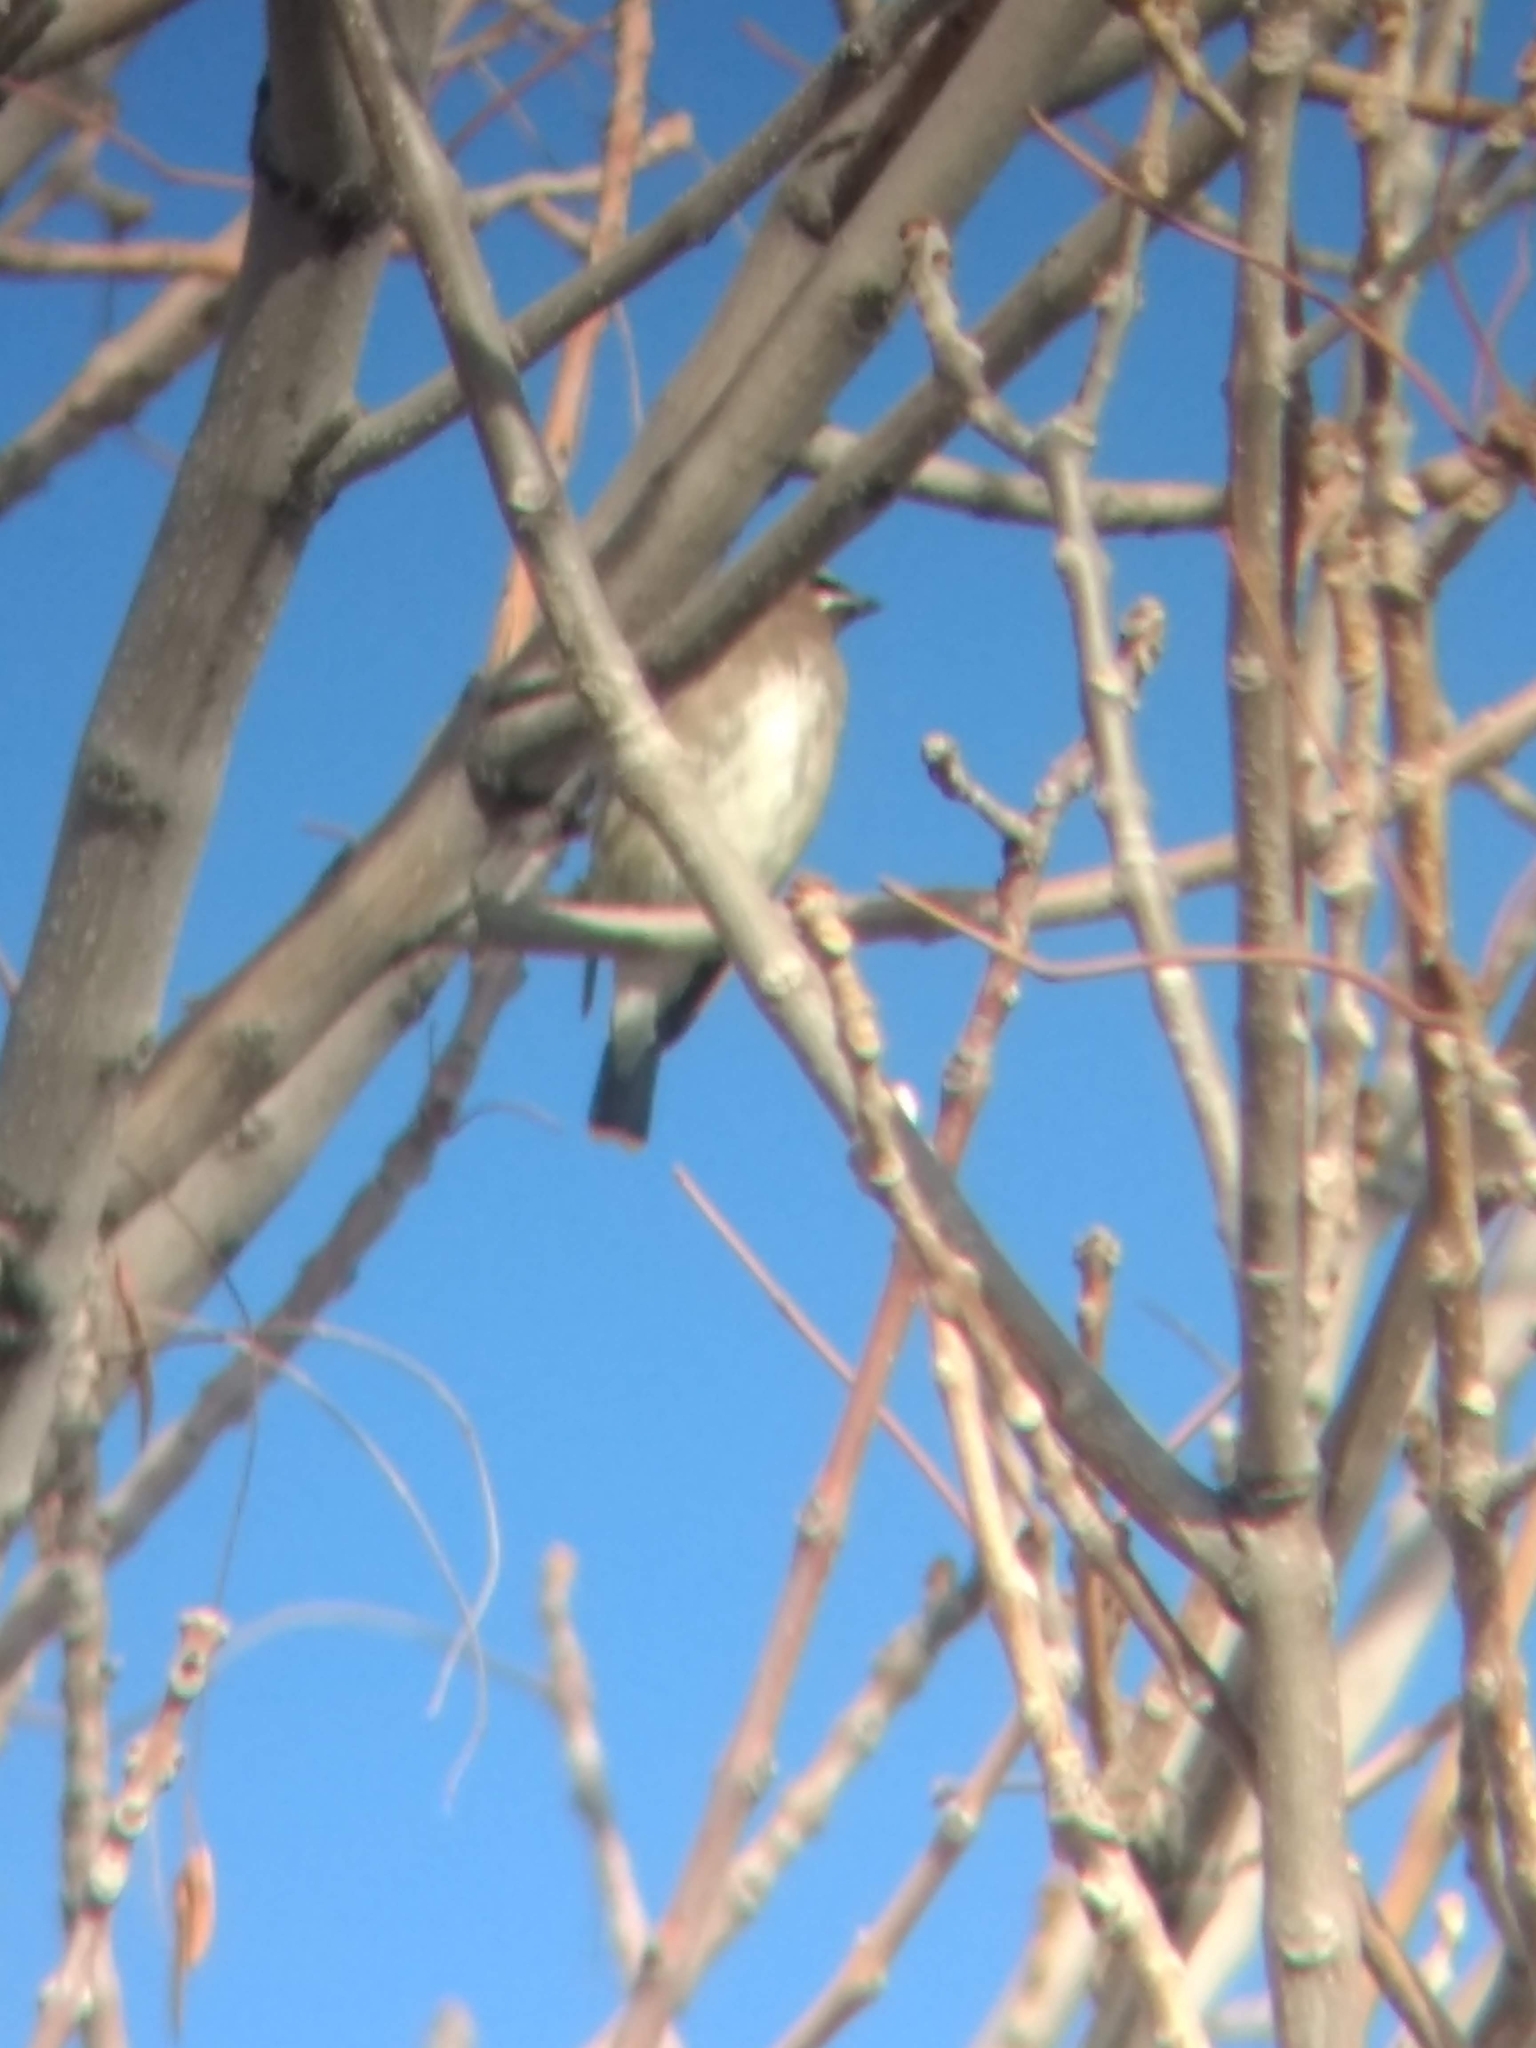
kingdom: Animalia
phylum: Chordata
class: Aves
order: Passeriformes
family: Bombycillidae
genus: Bombycilla
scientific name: Bombycilla cedrorum
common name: Cedar waxwing
